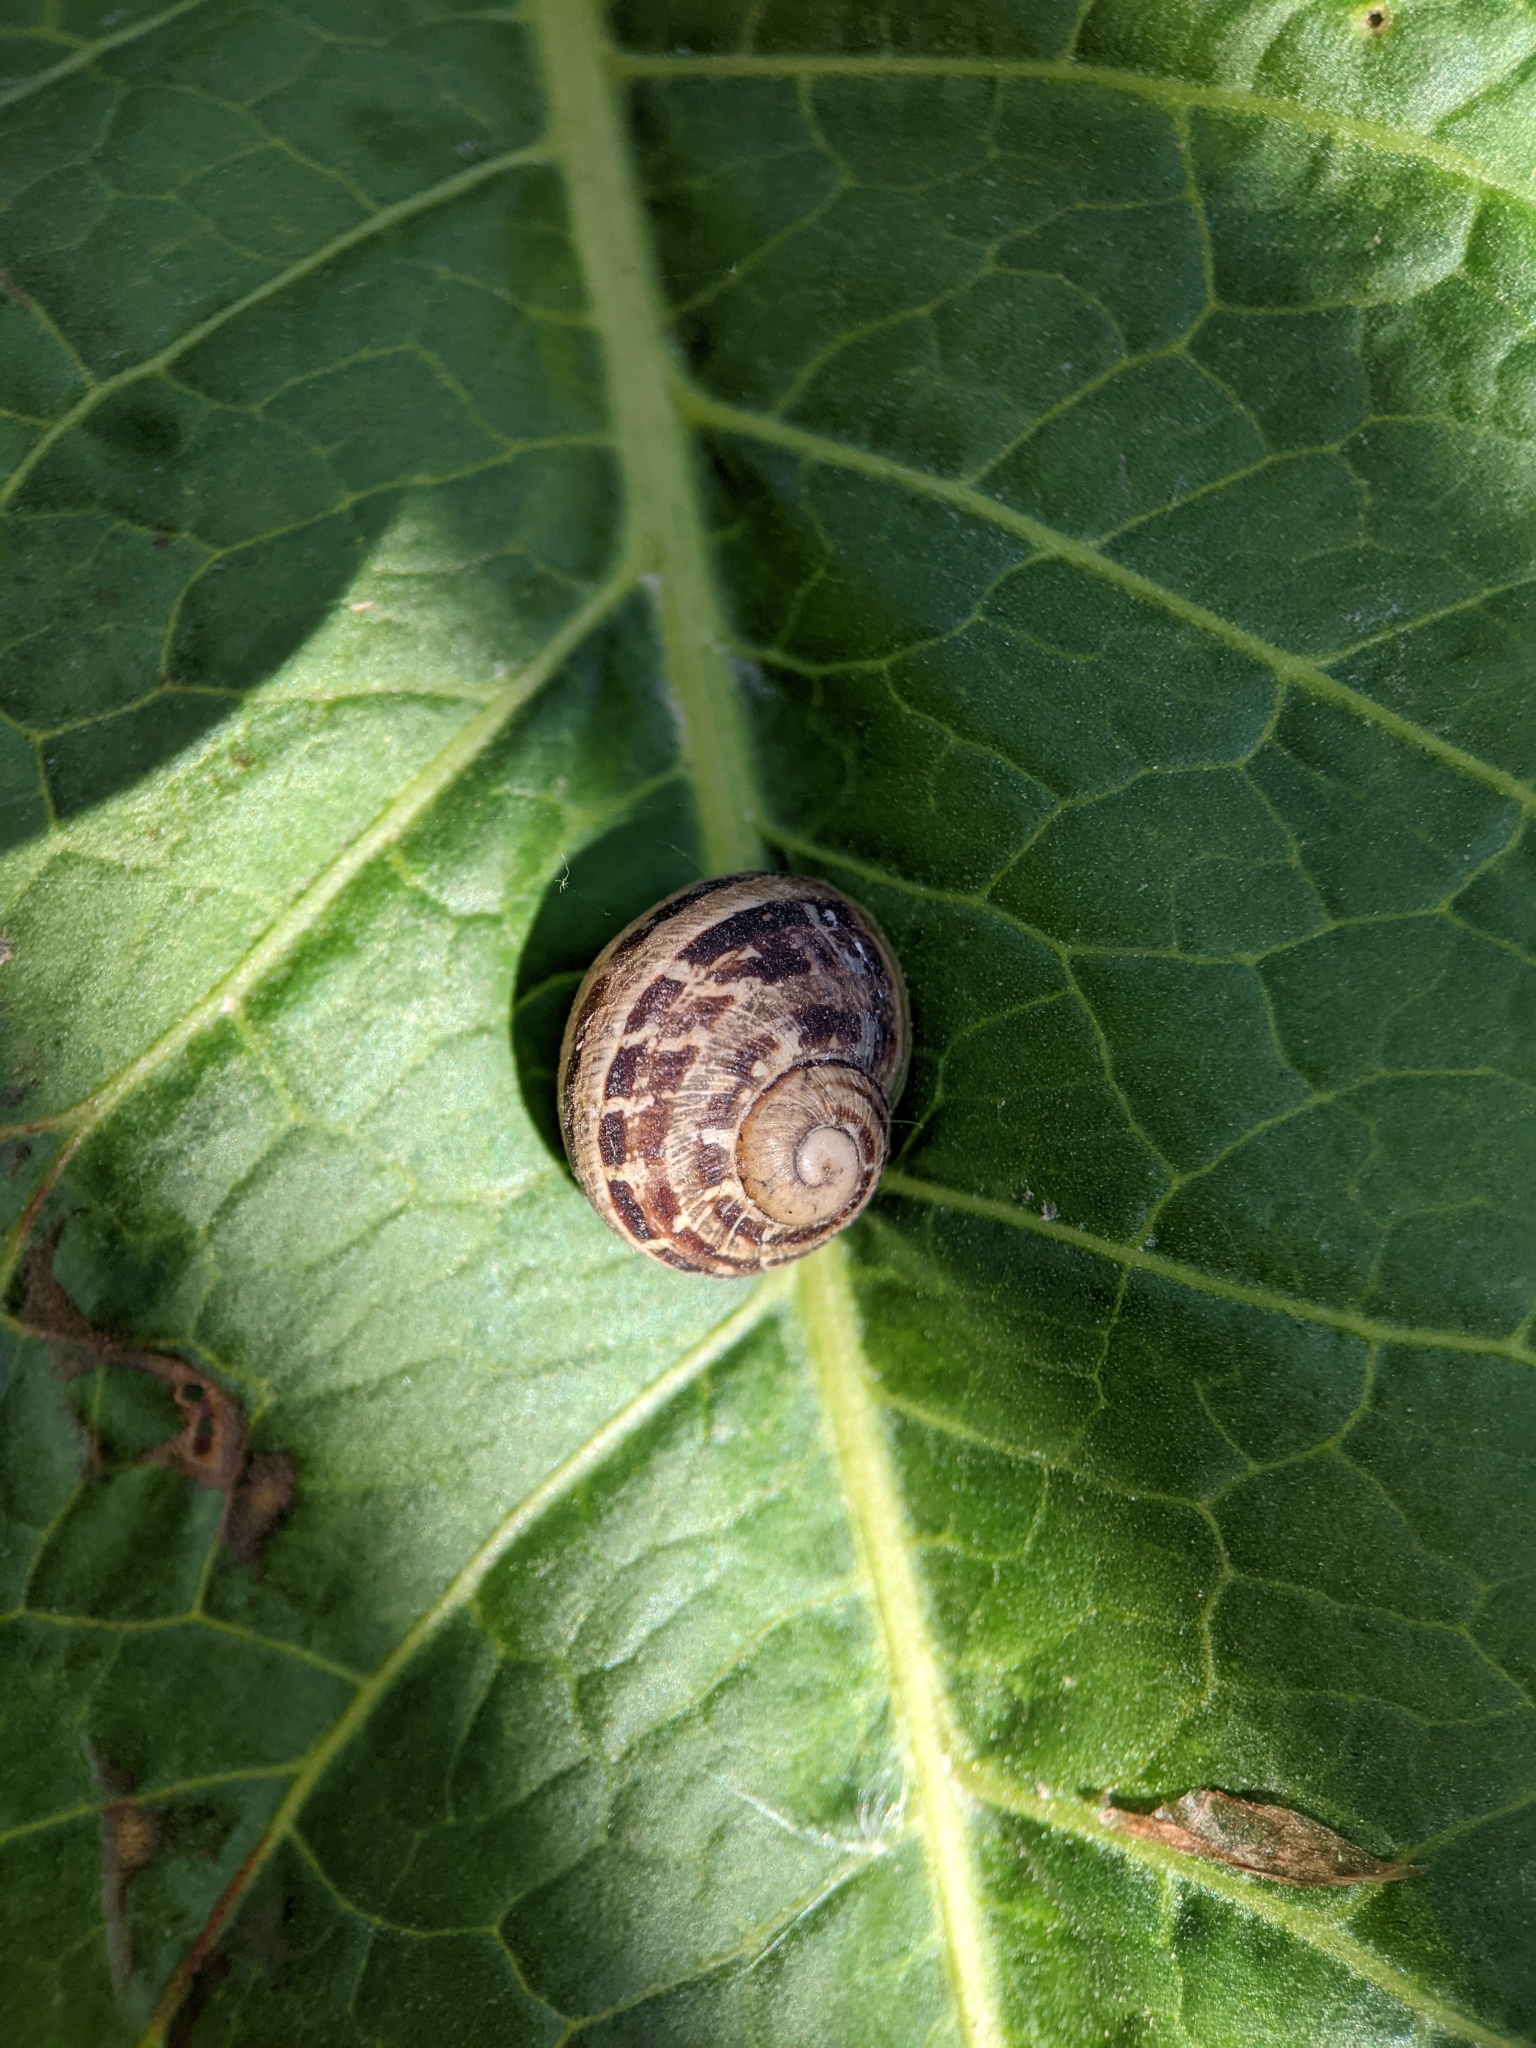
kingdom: Animalia
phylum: Mollusca
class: Gastropoda
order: Stylommatophora
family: Helicidae
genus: Cornu
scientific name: Cornu aspersum
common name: Brown garden snail
